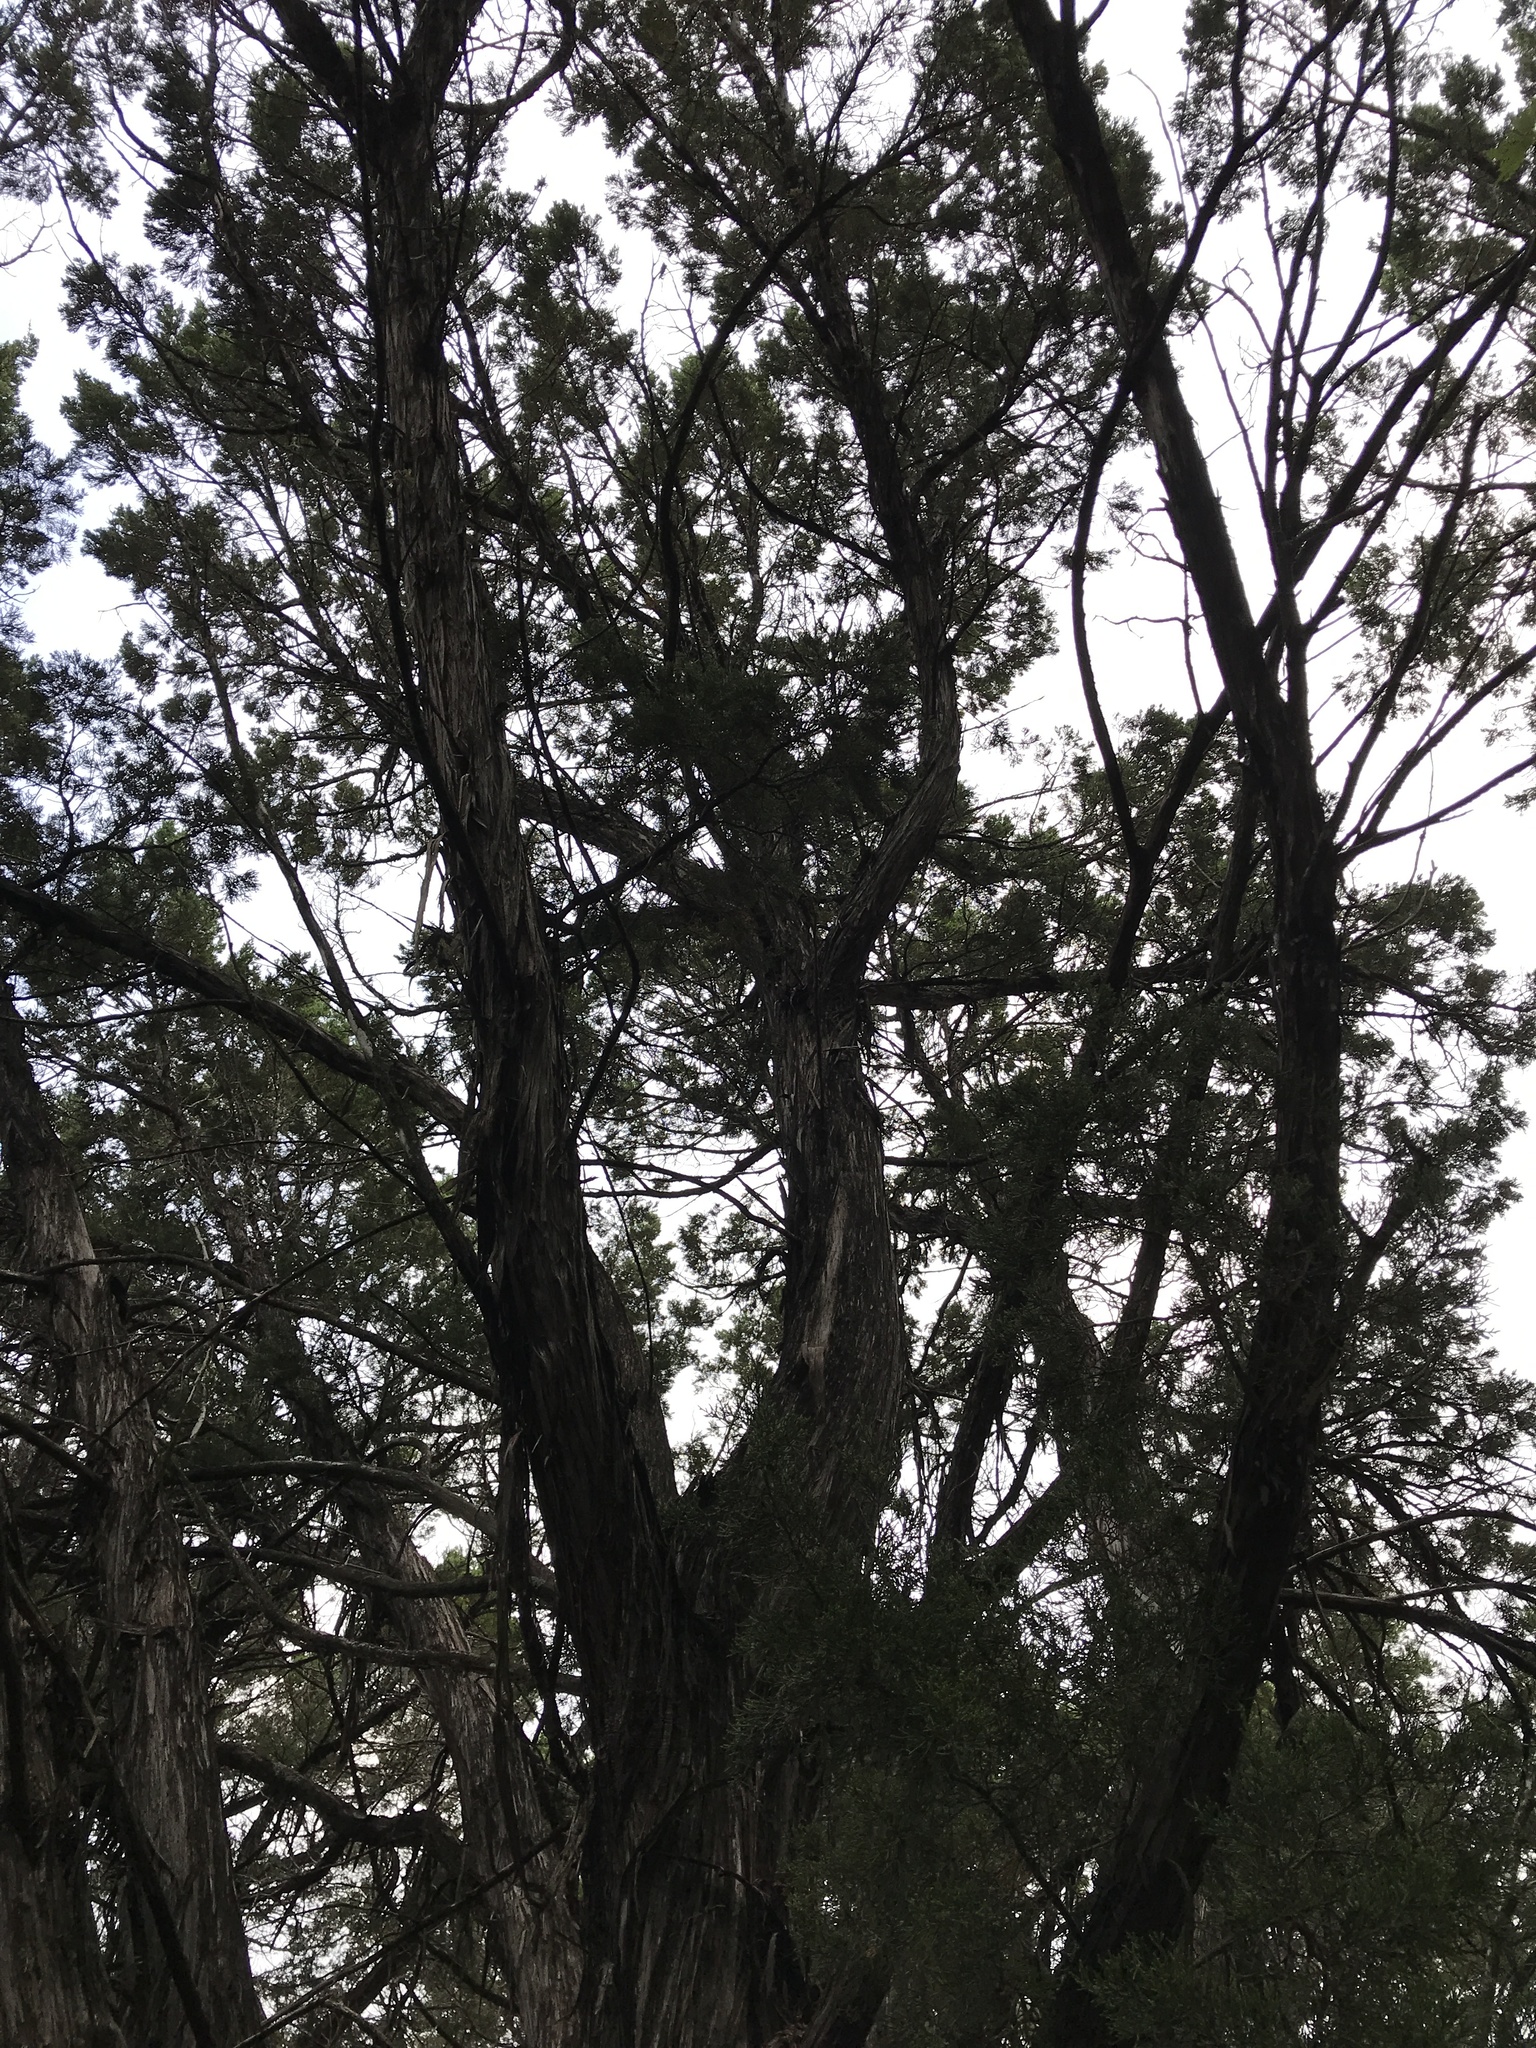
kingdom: Plantae
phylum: Tracheophyta
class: Pinopsida
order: Pinales
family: Cupressaceae
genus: Juniperus
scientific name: Juniperus ashei
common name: Mexican juniper
